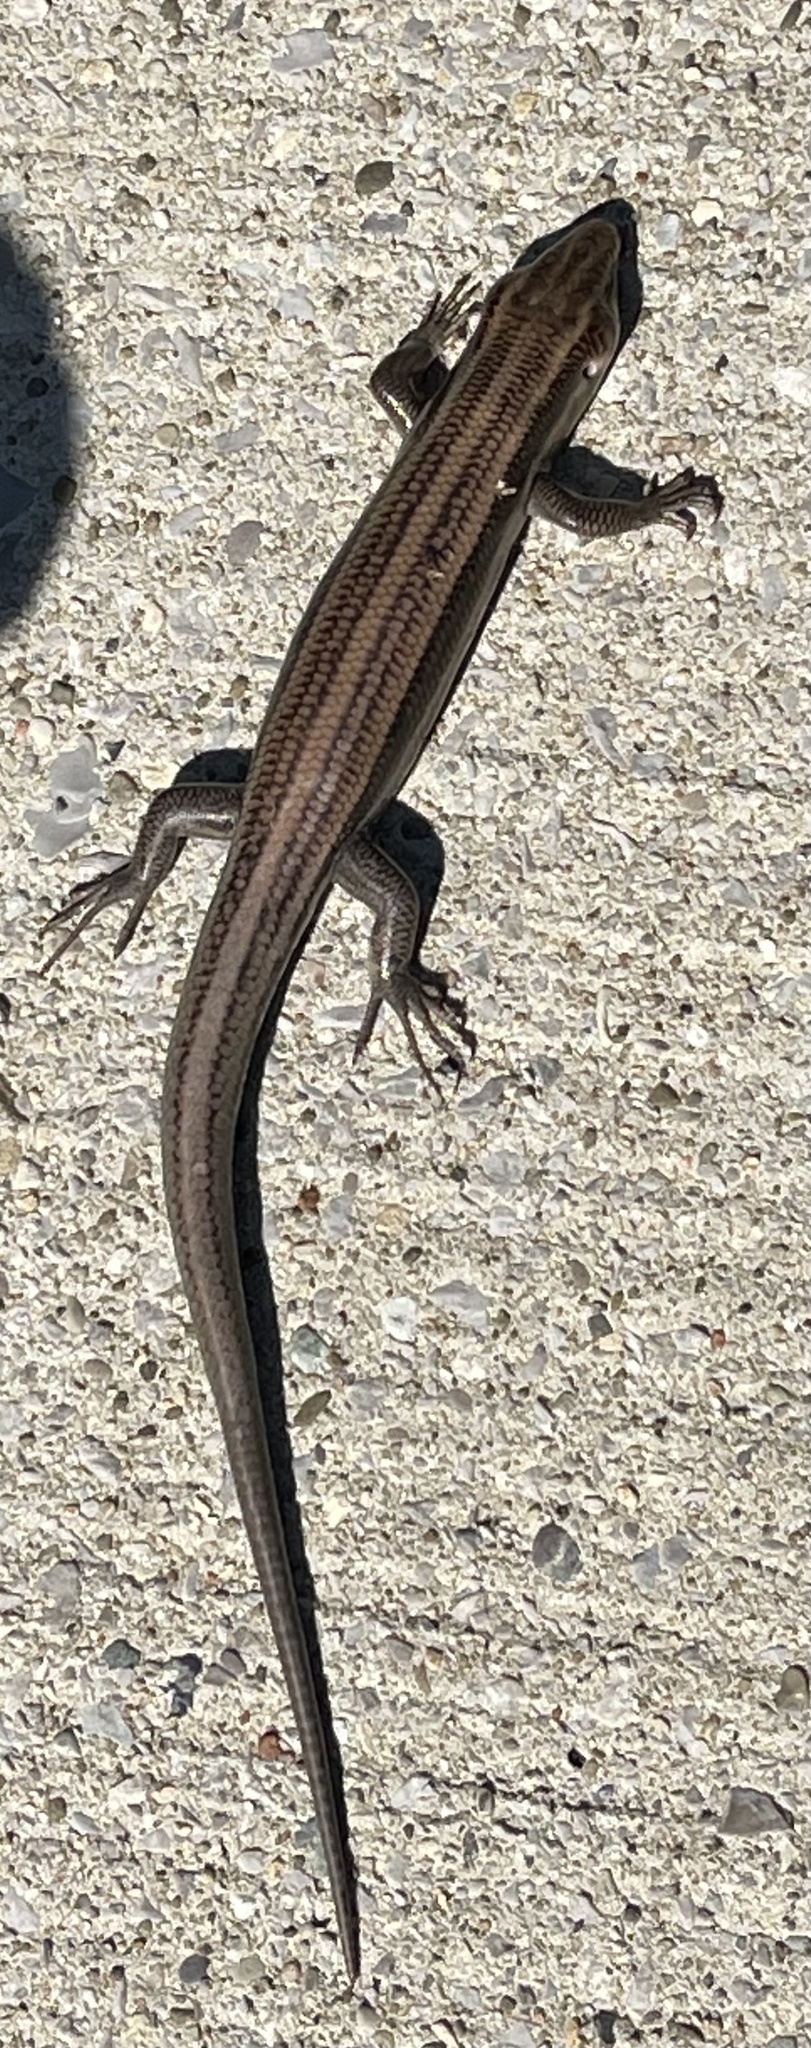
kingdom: Animalia
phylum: Chordata
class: Squamata
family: Scincidae
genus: Plestiodon
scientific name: Plestiodon fasciatus
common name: Five-lined skink
